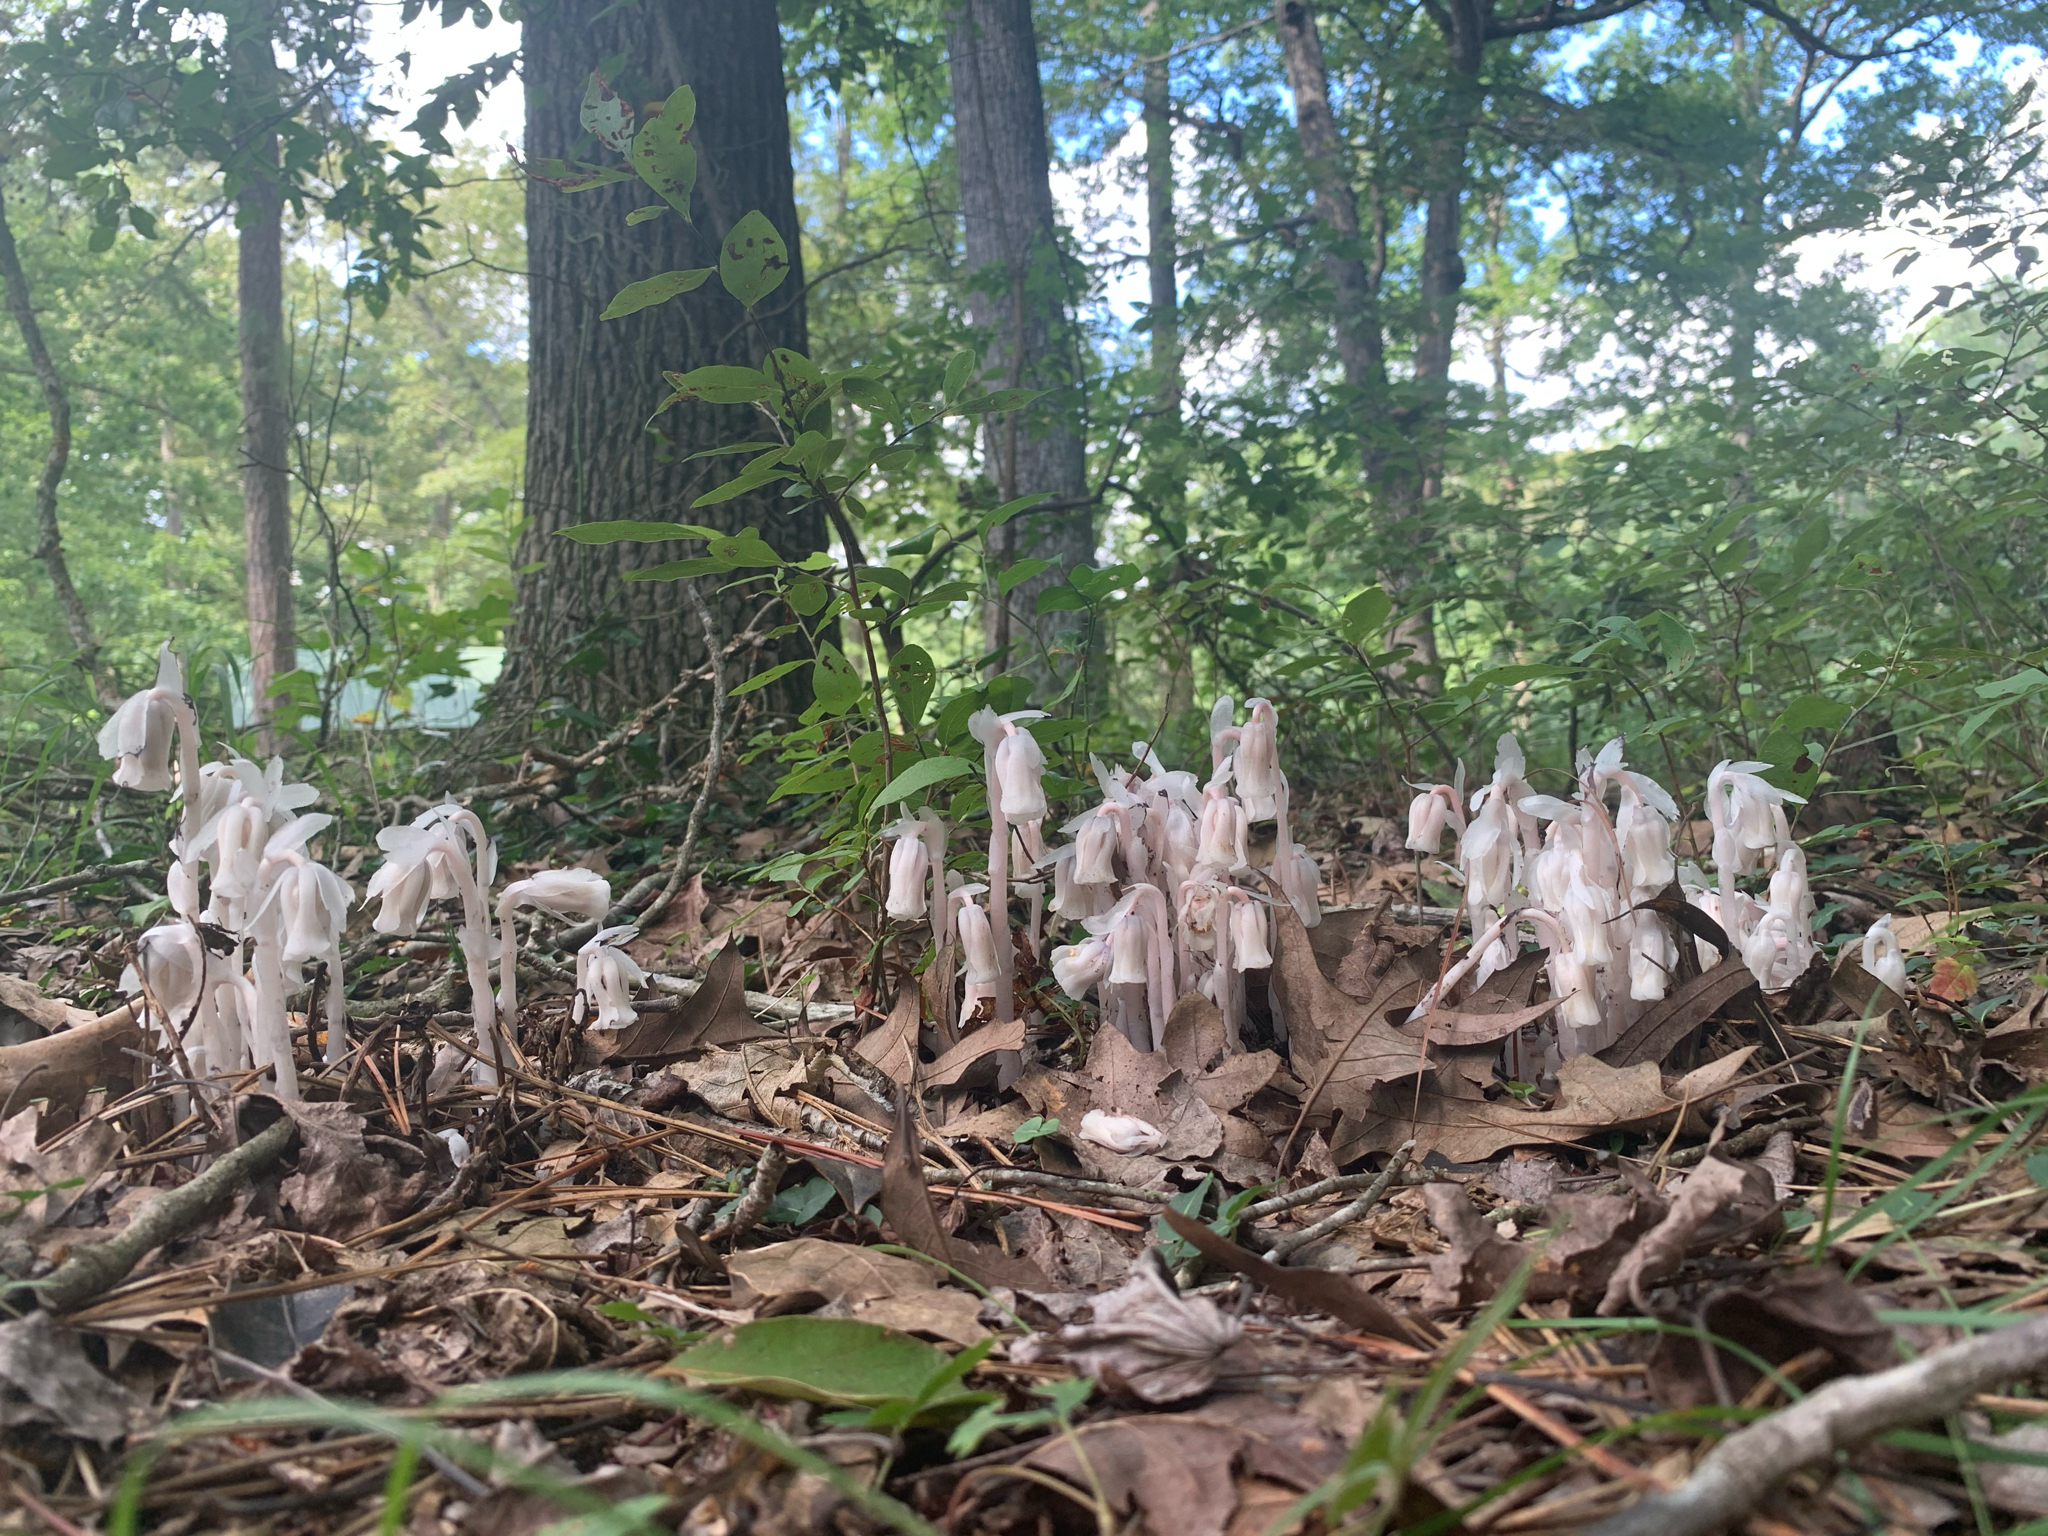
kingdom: Plantae
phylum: Tracheophyta
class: Magnoliopsida
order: Ericales
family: Ericaceae
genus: Monotropa
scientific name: Monotropa uniflora
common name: Convulsion root
